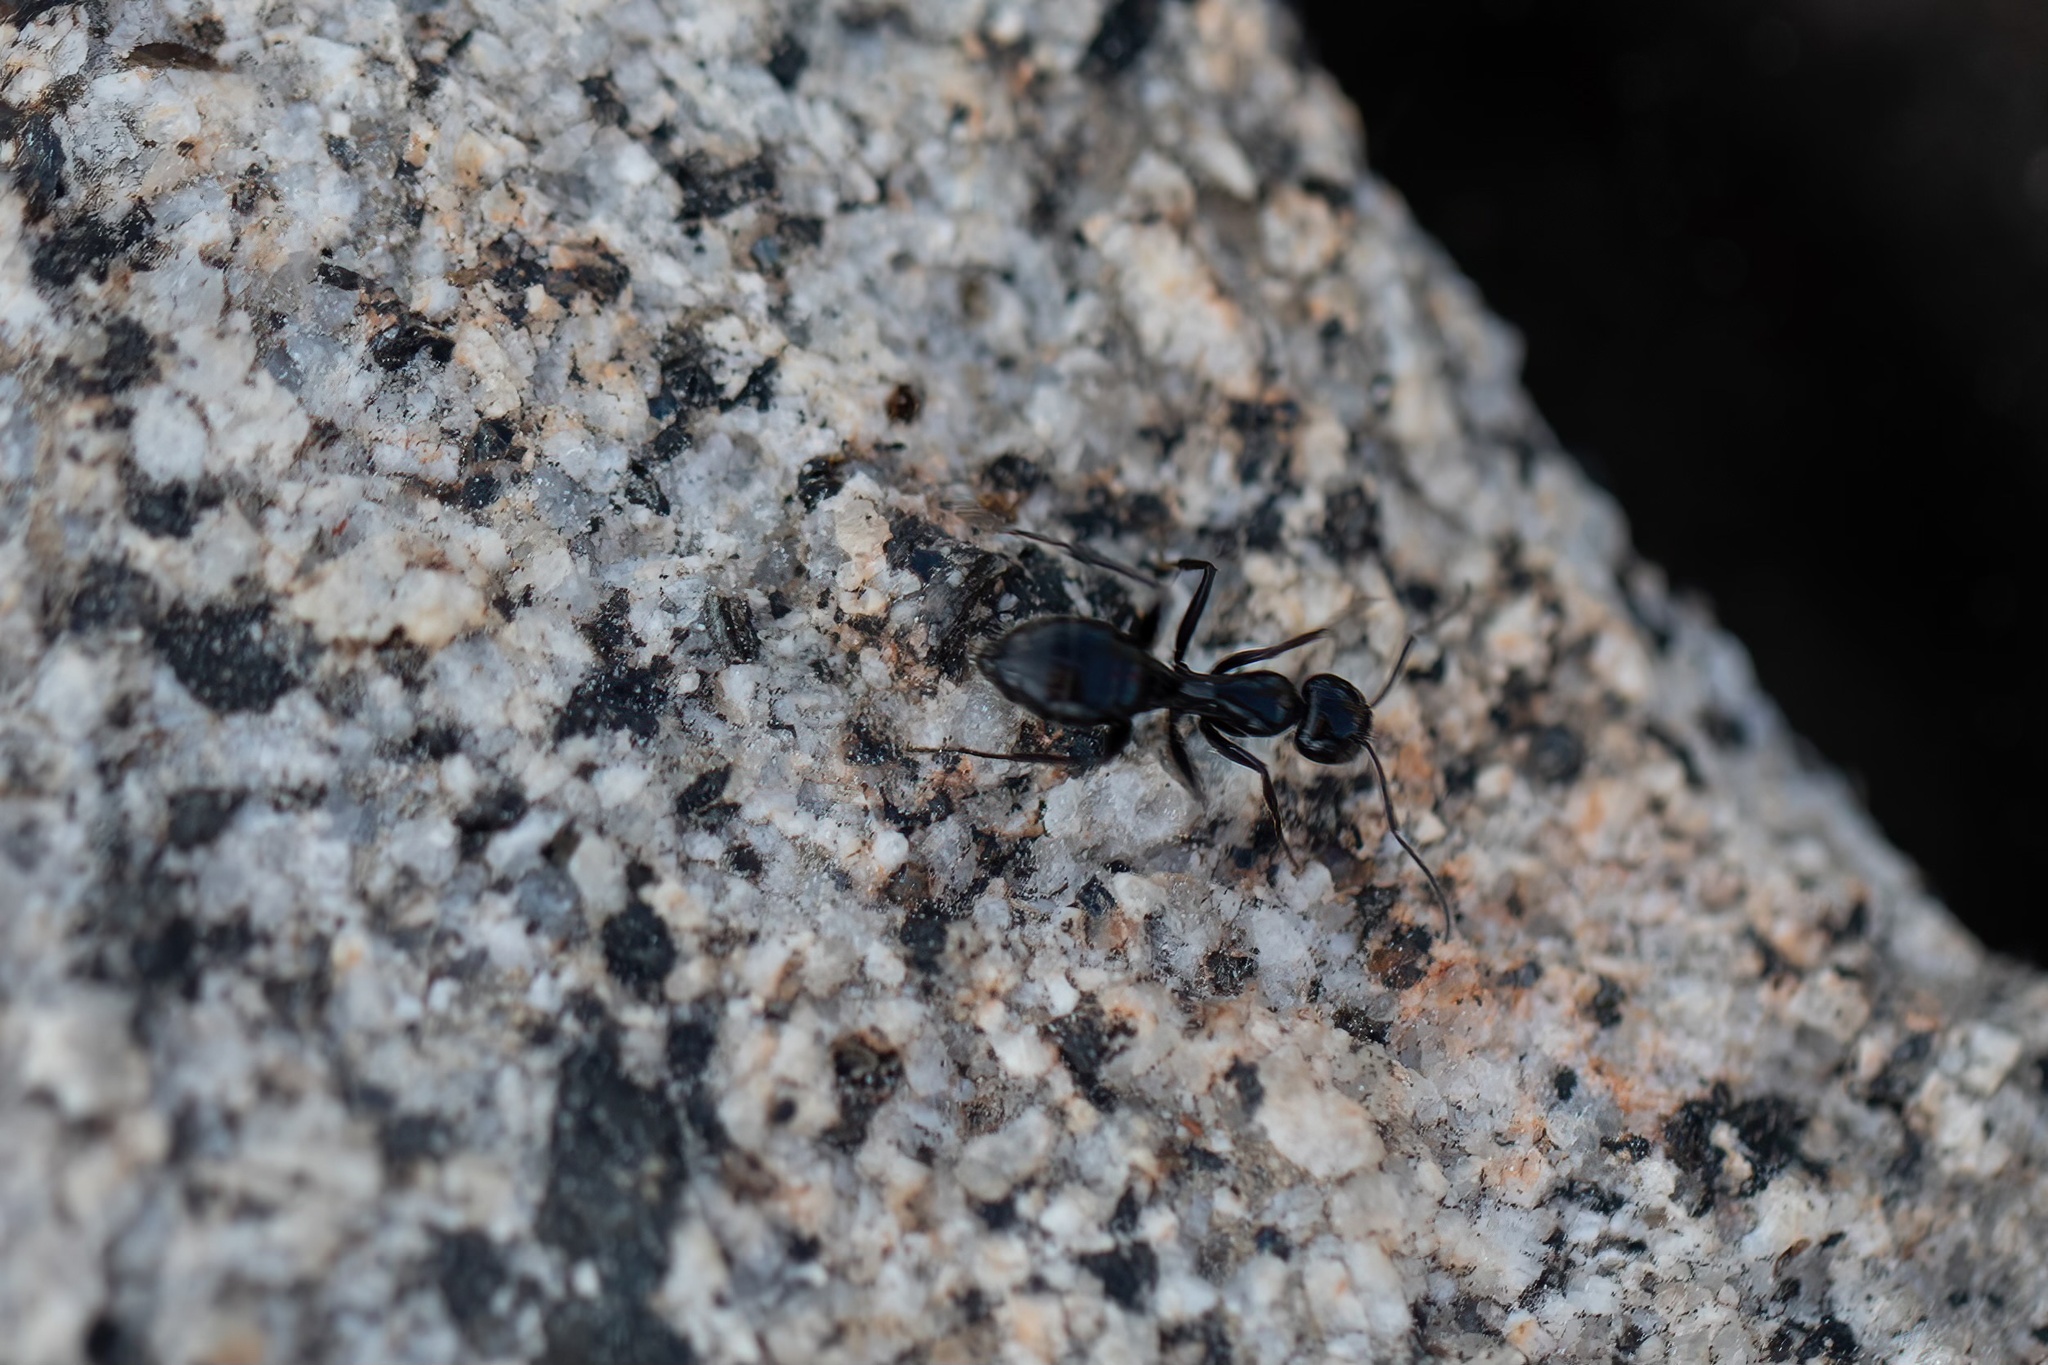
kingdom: Animalia
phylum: Arthropoda
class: Insecta
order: Hymenoptera
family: Formicidae
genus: Camponotus
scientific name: Camponotus
